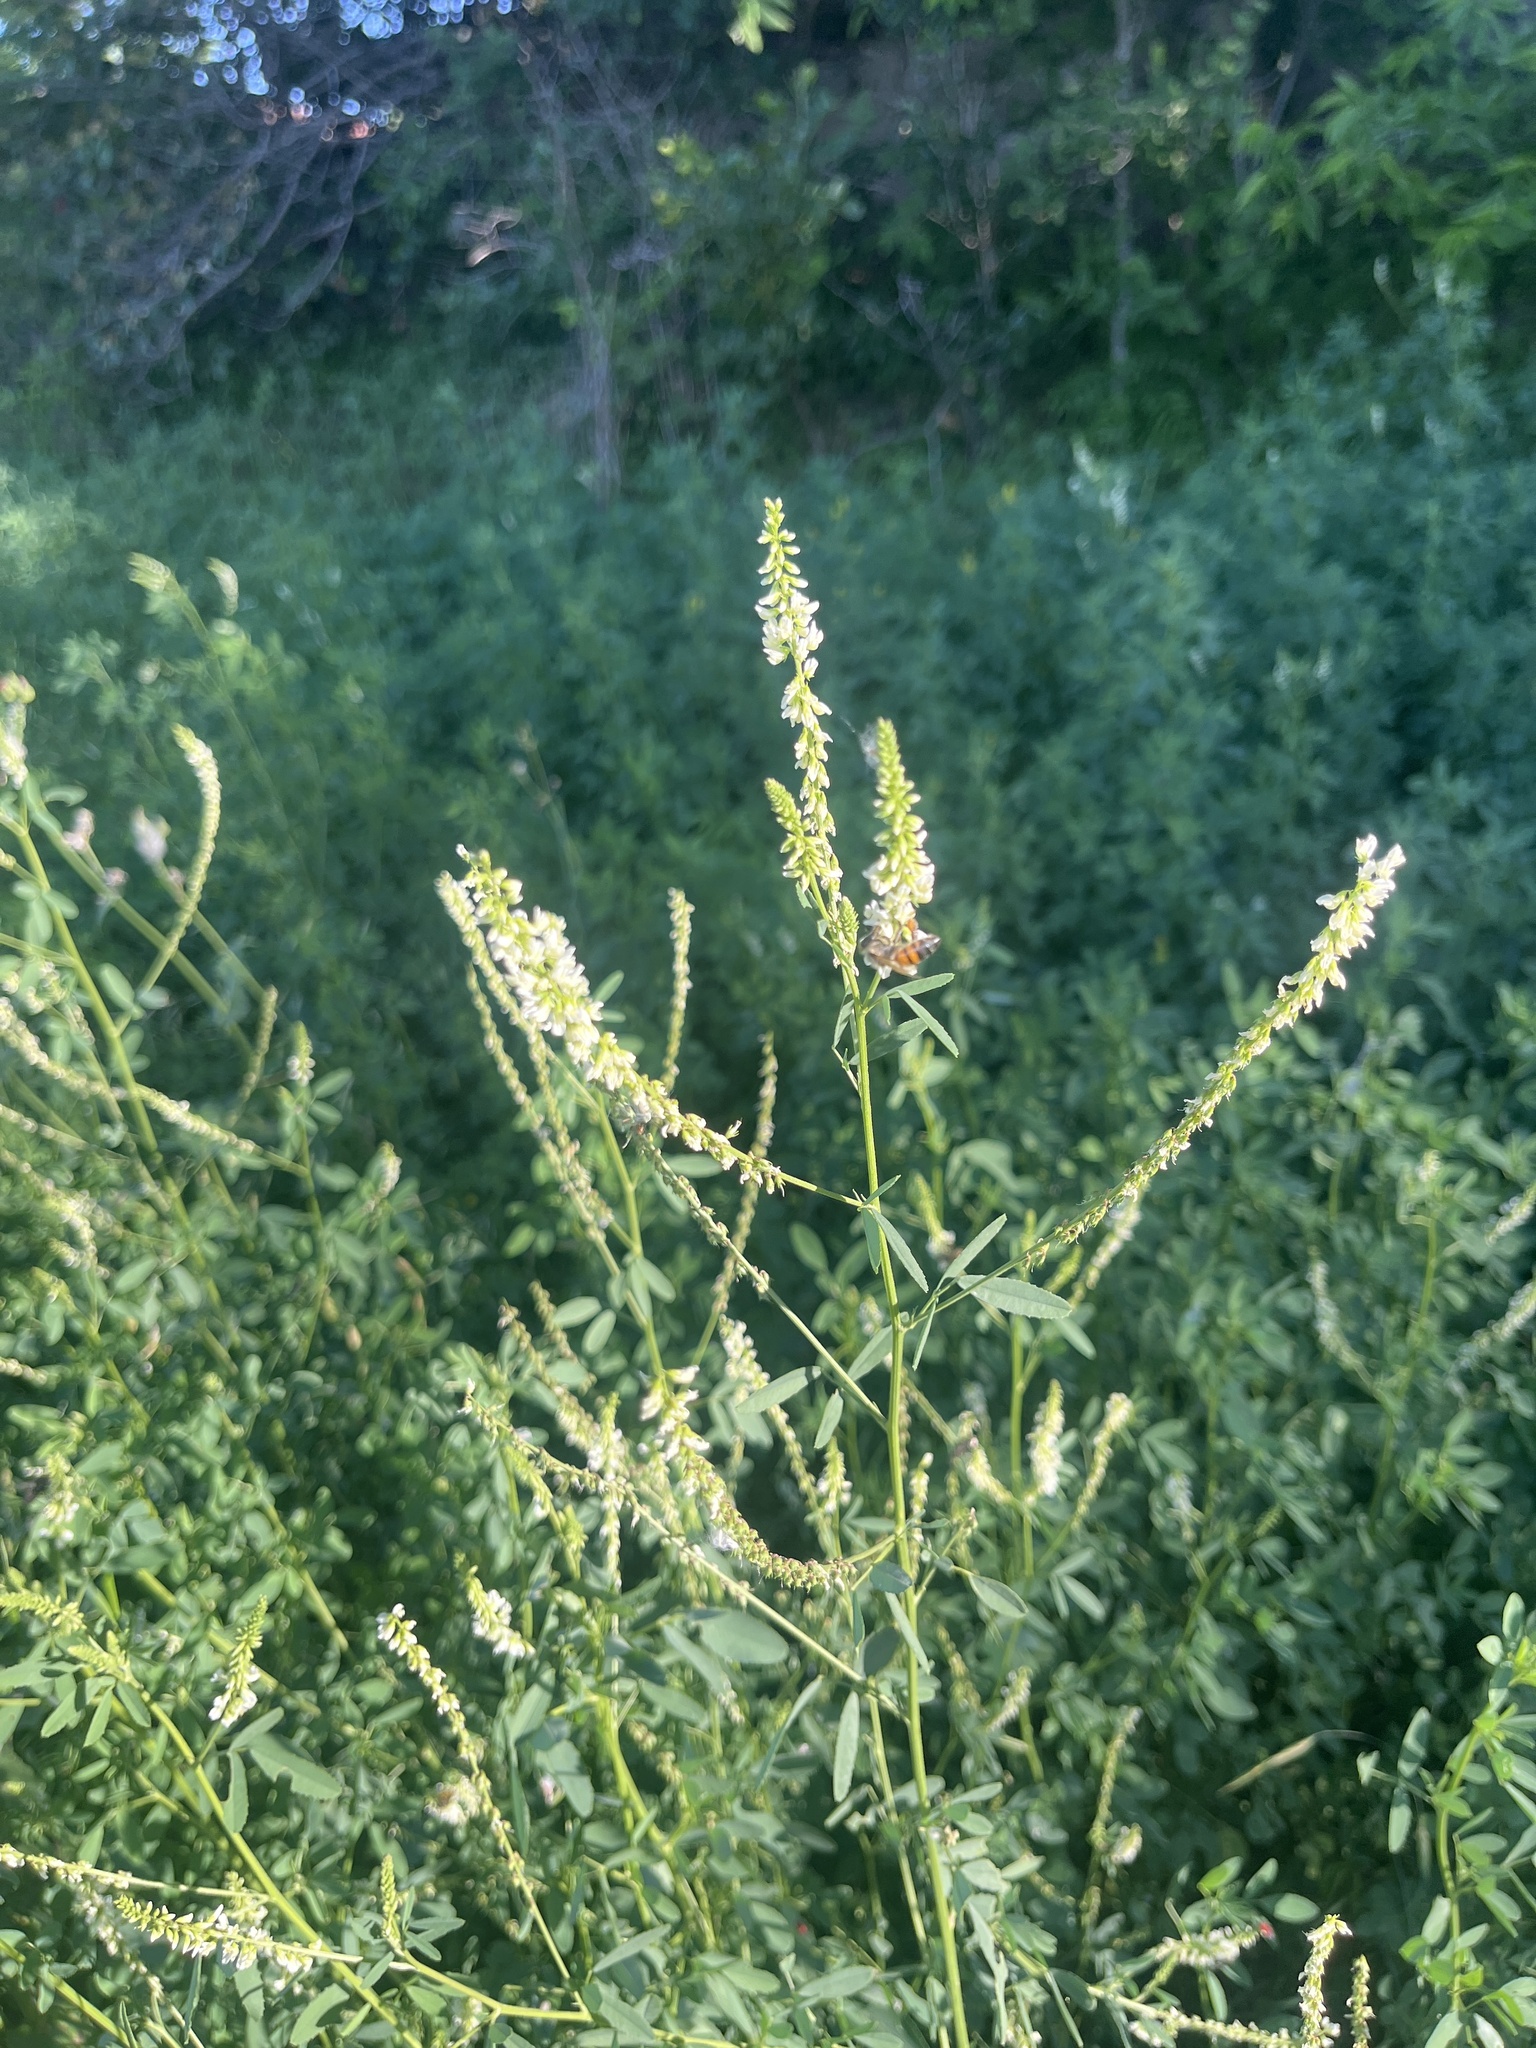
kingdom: Plantae
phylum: Tracheophyta
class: Magnoliopsida
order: Fabales
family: Fabaceae
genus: Melilotus
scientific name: Melilotus albus
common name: White melilot
